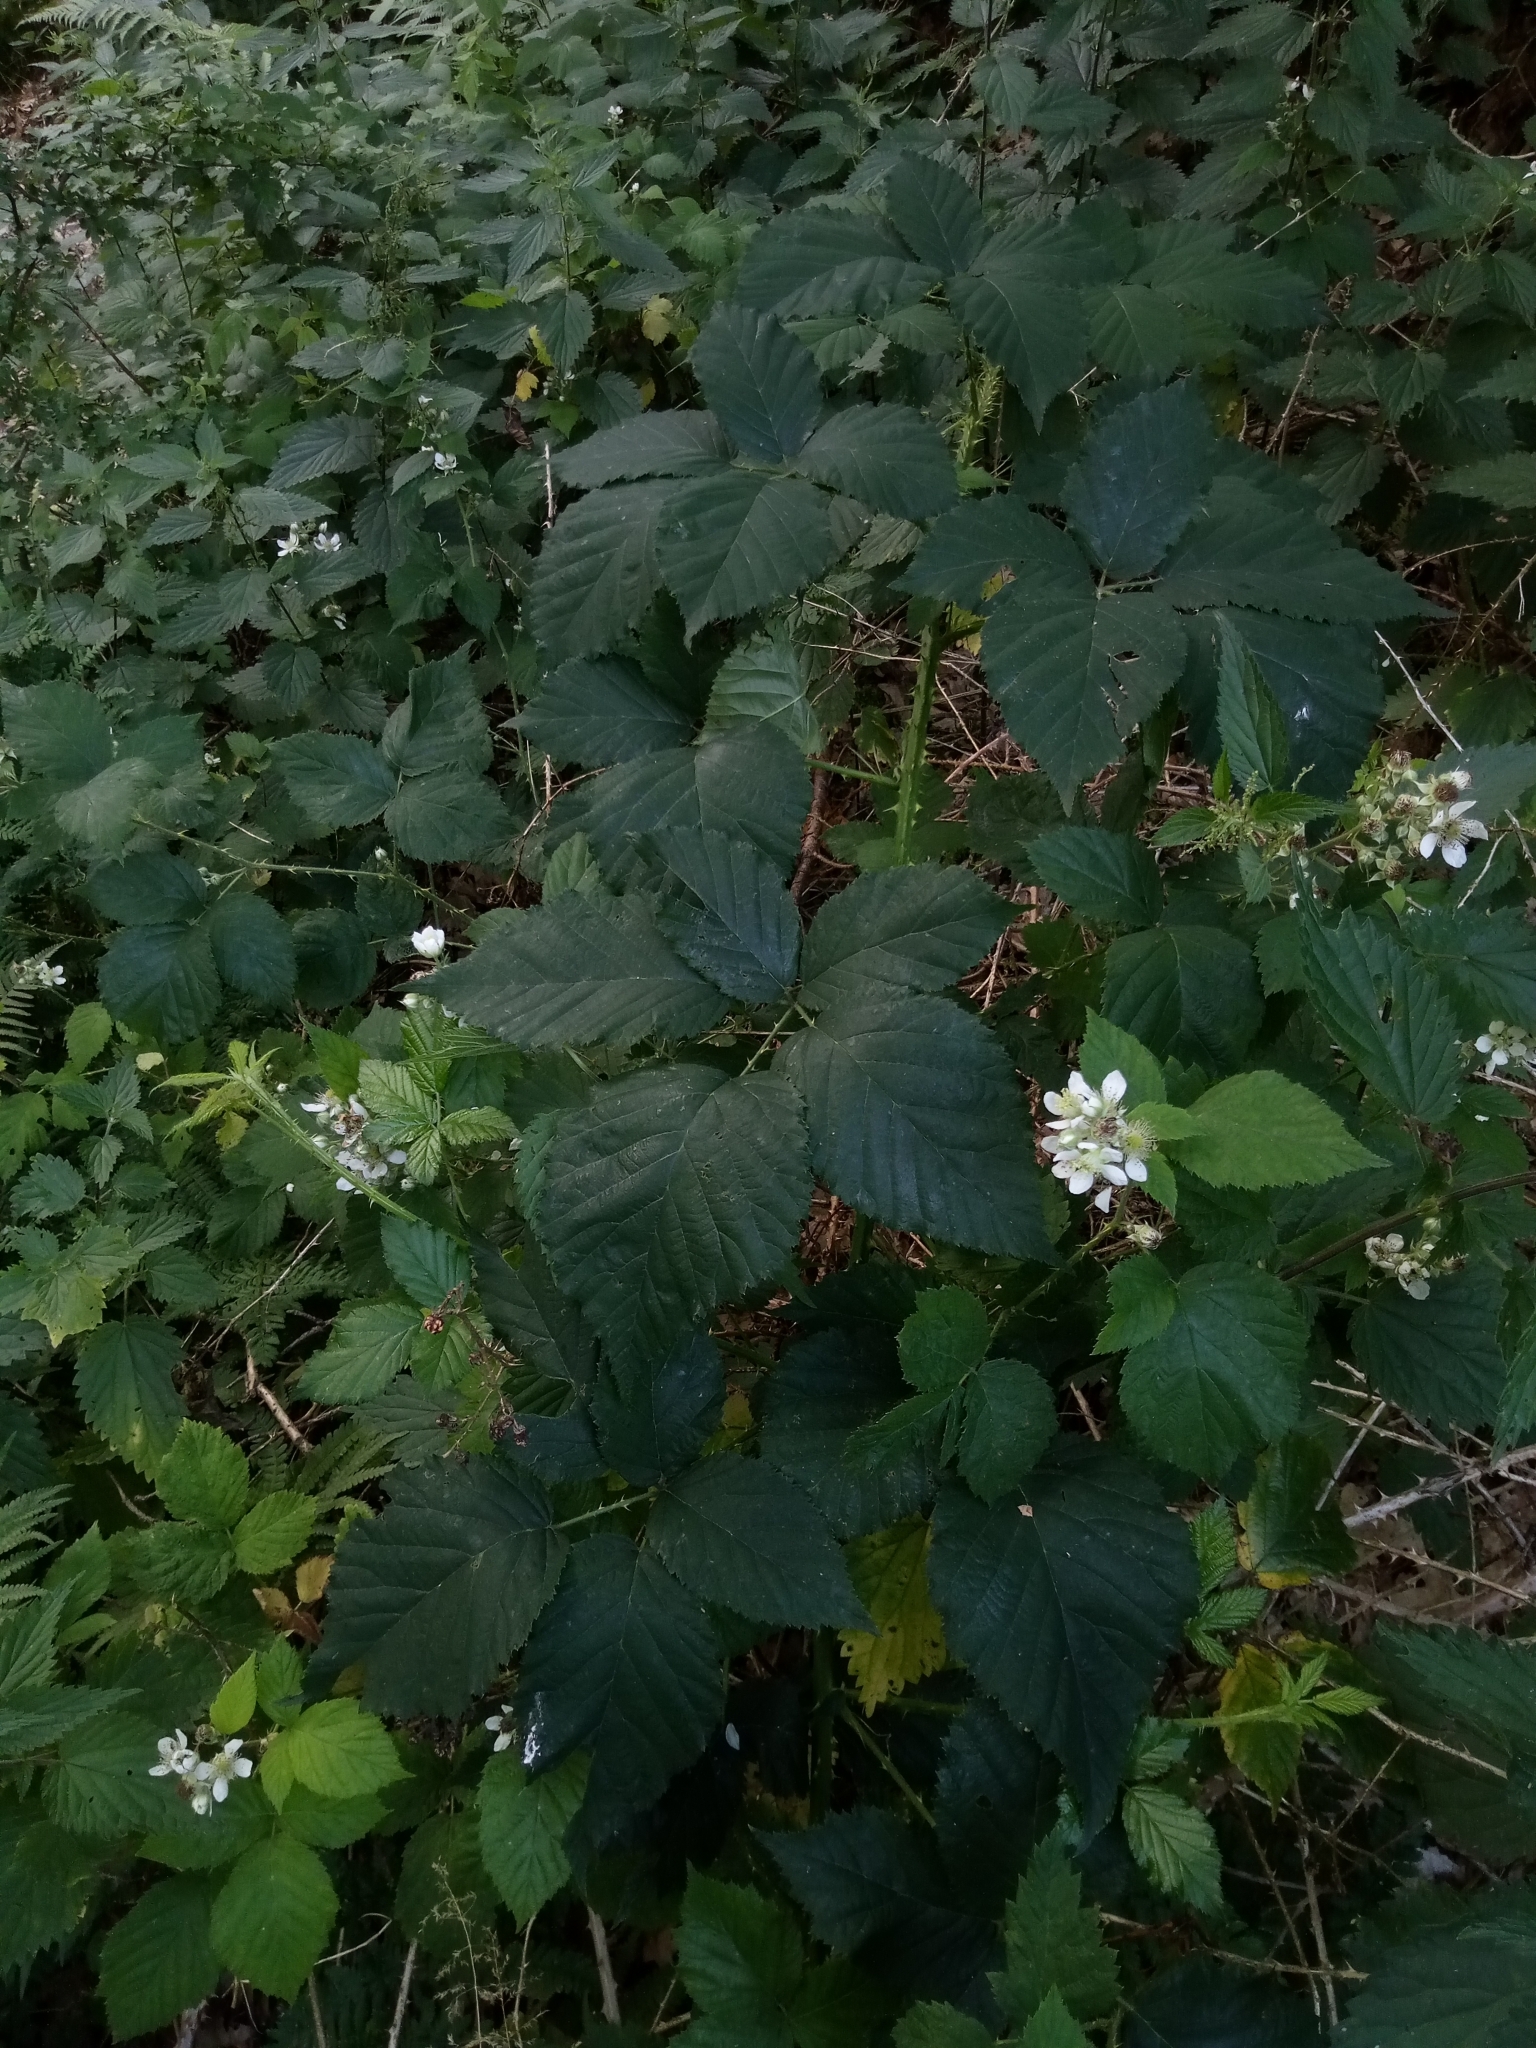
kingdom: Plantae
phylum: Tracheophyta
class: Magnoliopsida
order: Rosales
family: Rosaceae
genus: Rubus
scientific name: Rubus clusii
